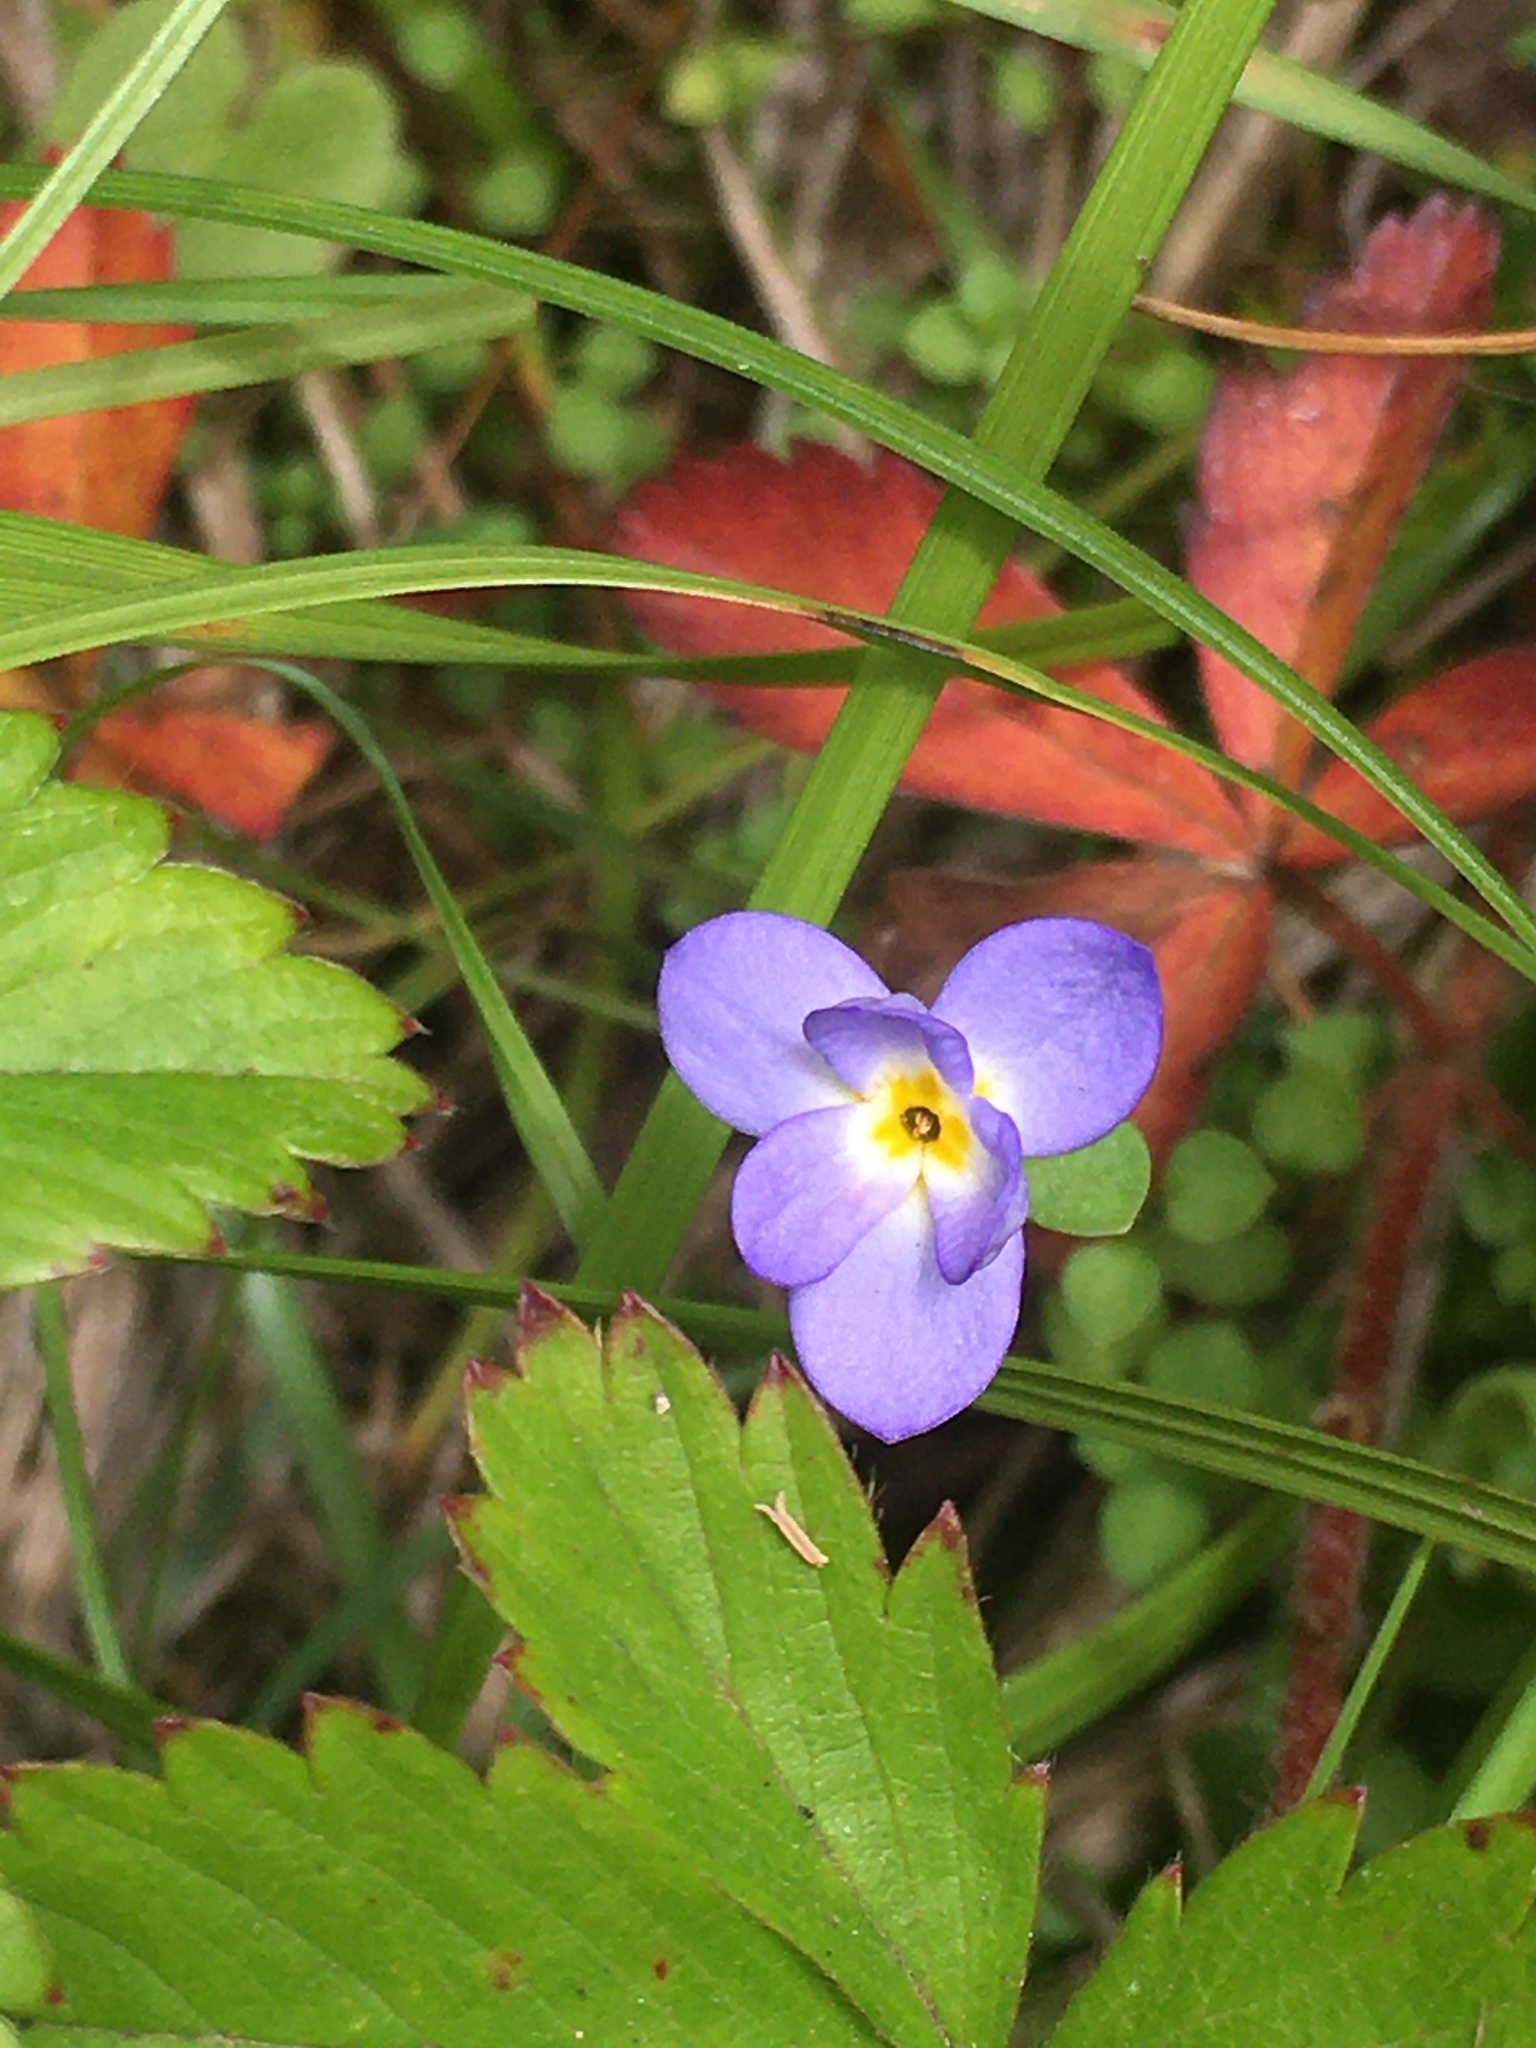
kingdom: Plantae
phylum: Tracheophyta
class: Magnoliopsida
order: Gentianales
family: Rubiaceae
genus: Houstonia
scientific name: Houstonia serpyllifolia
